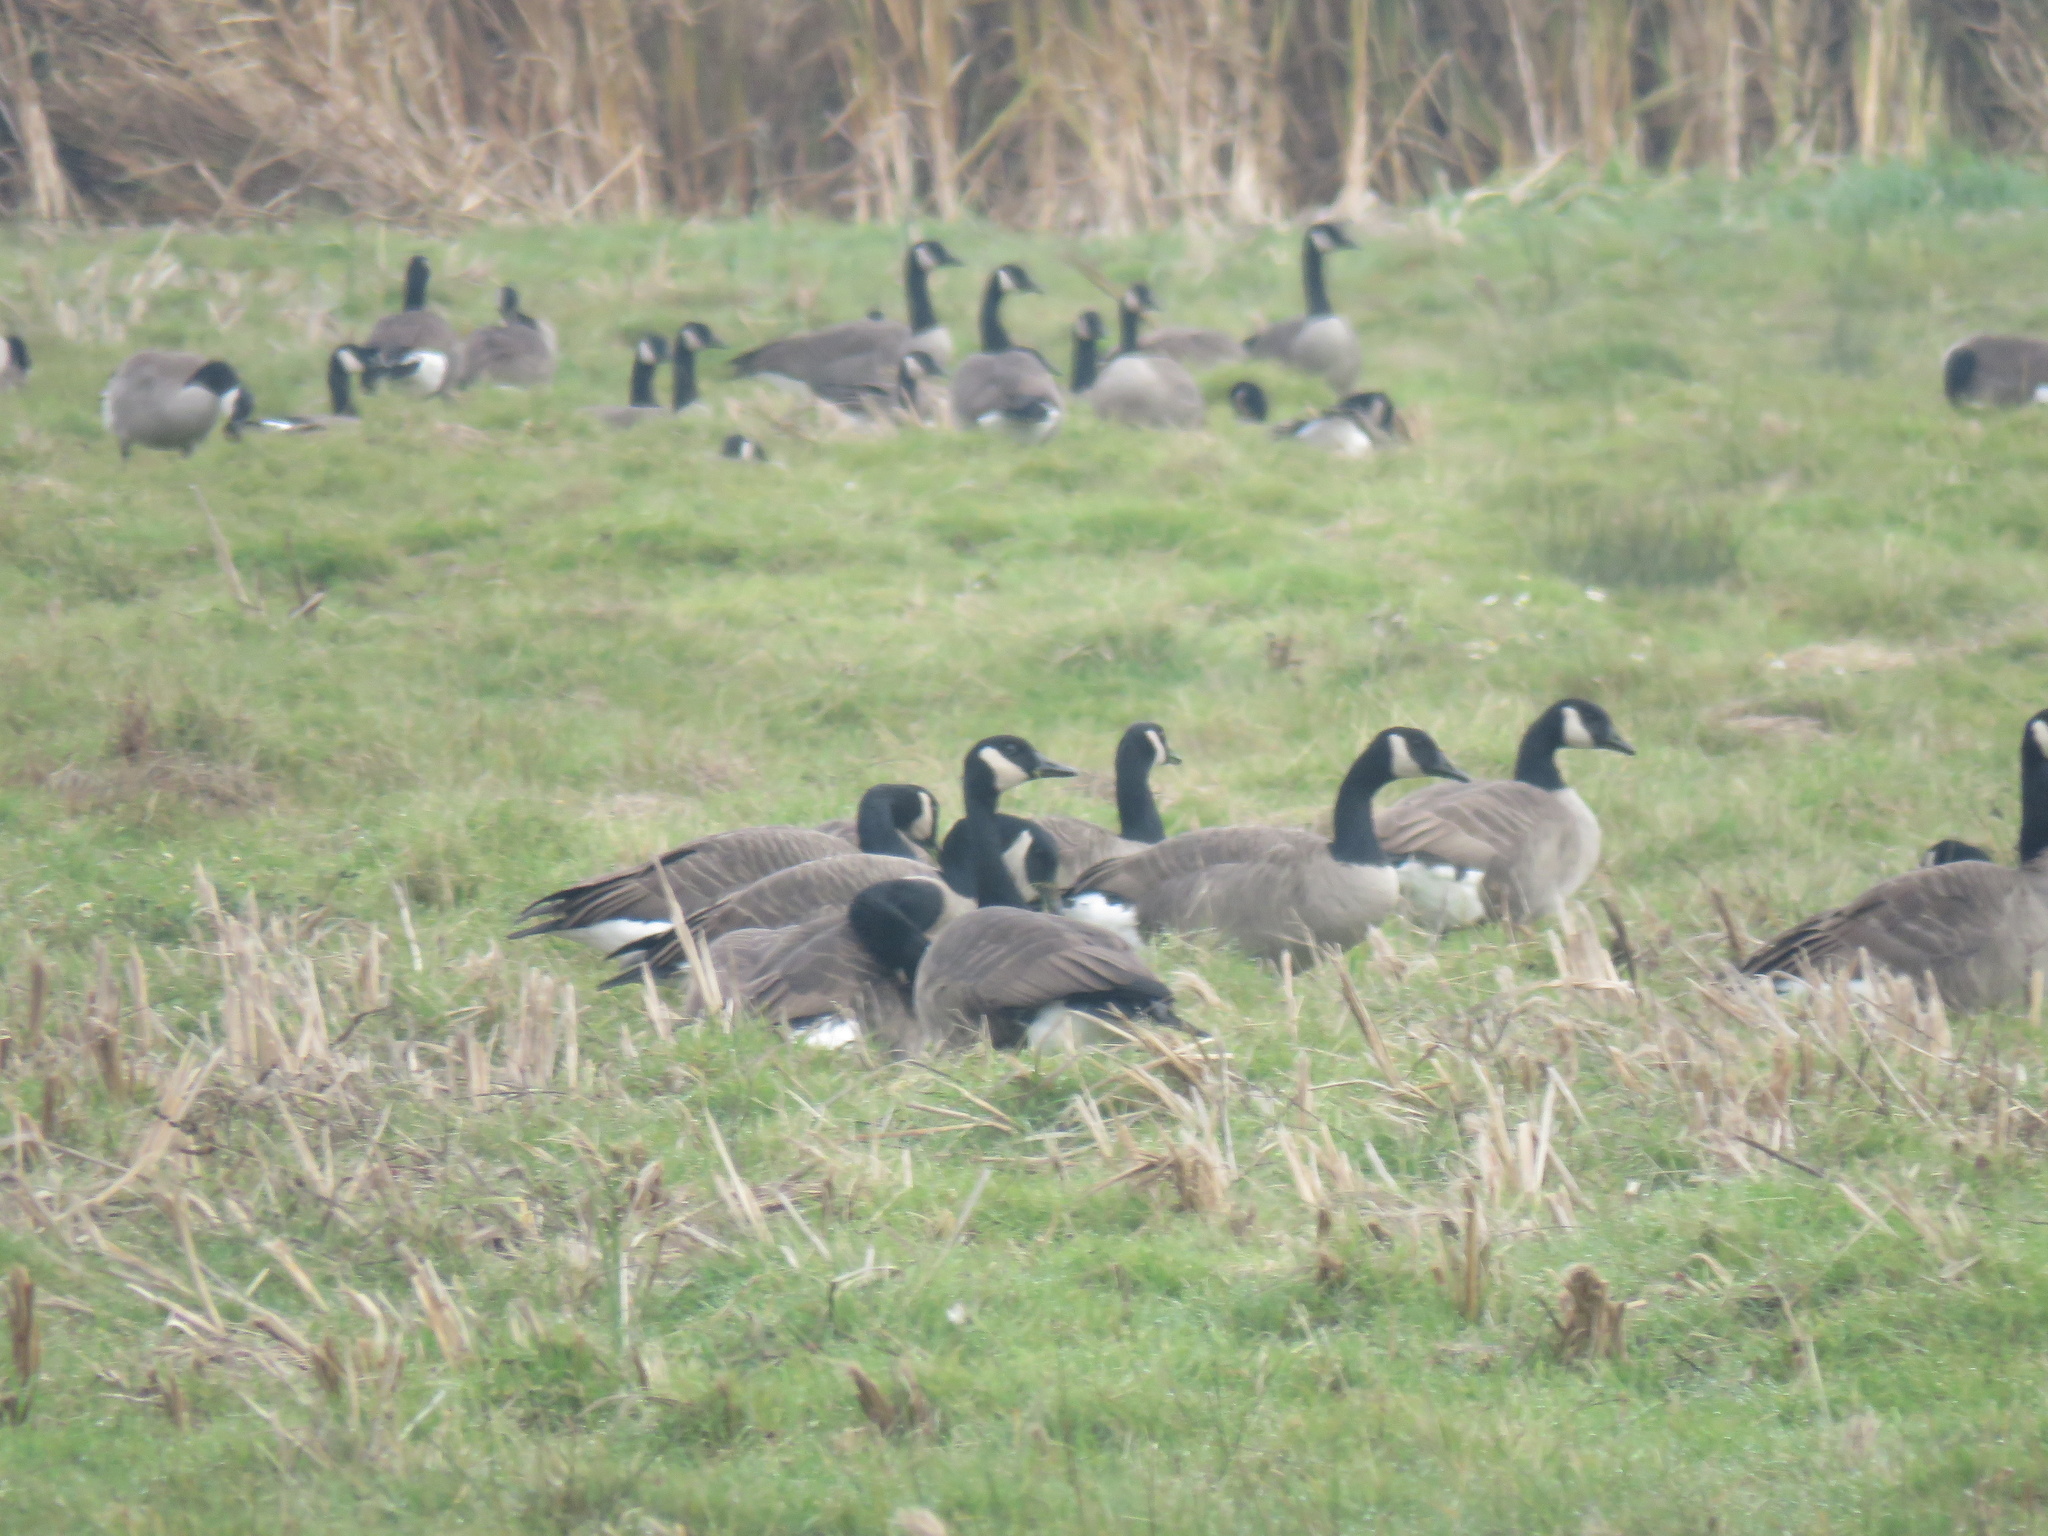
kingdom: Animalia
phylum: Chordata
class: Aves
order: Anseriformes
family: Anatidae
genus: Branta
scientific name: Branta canadensis
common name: Canada goose
